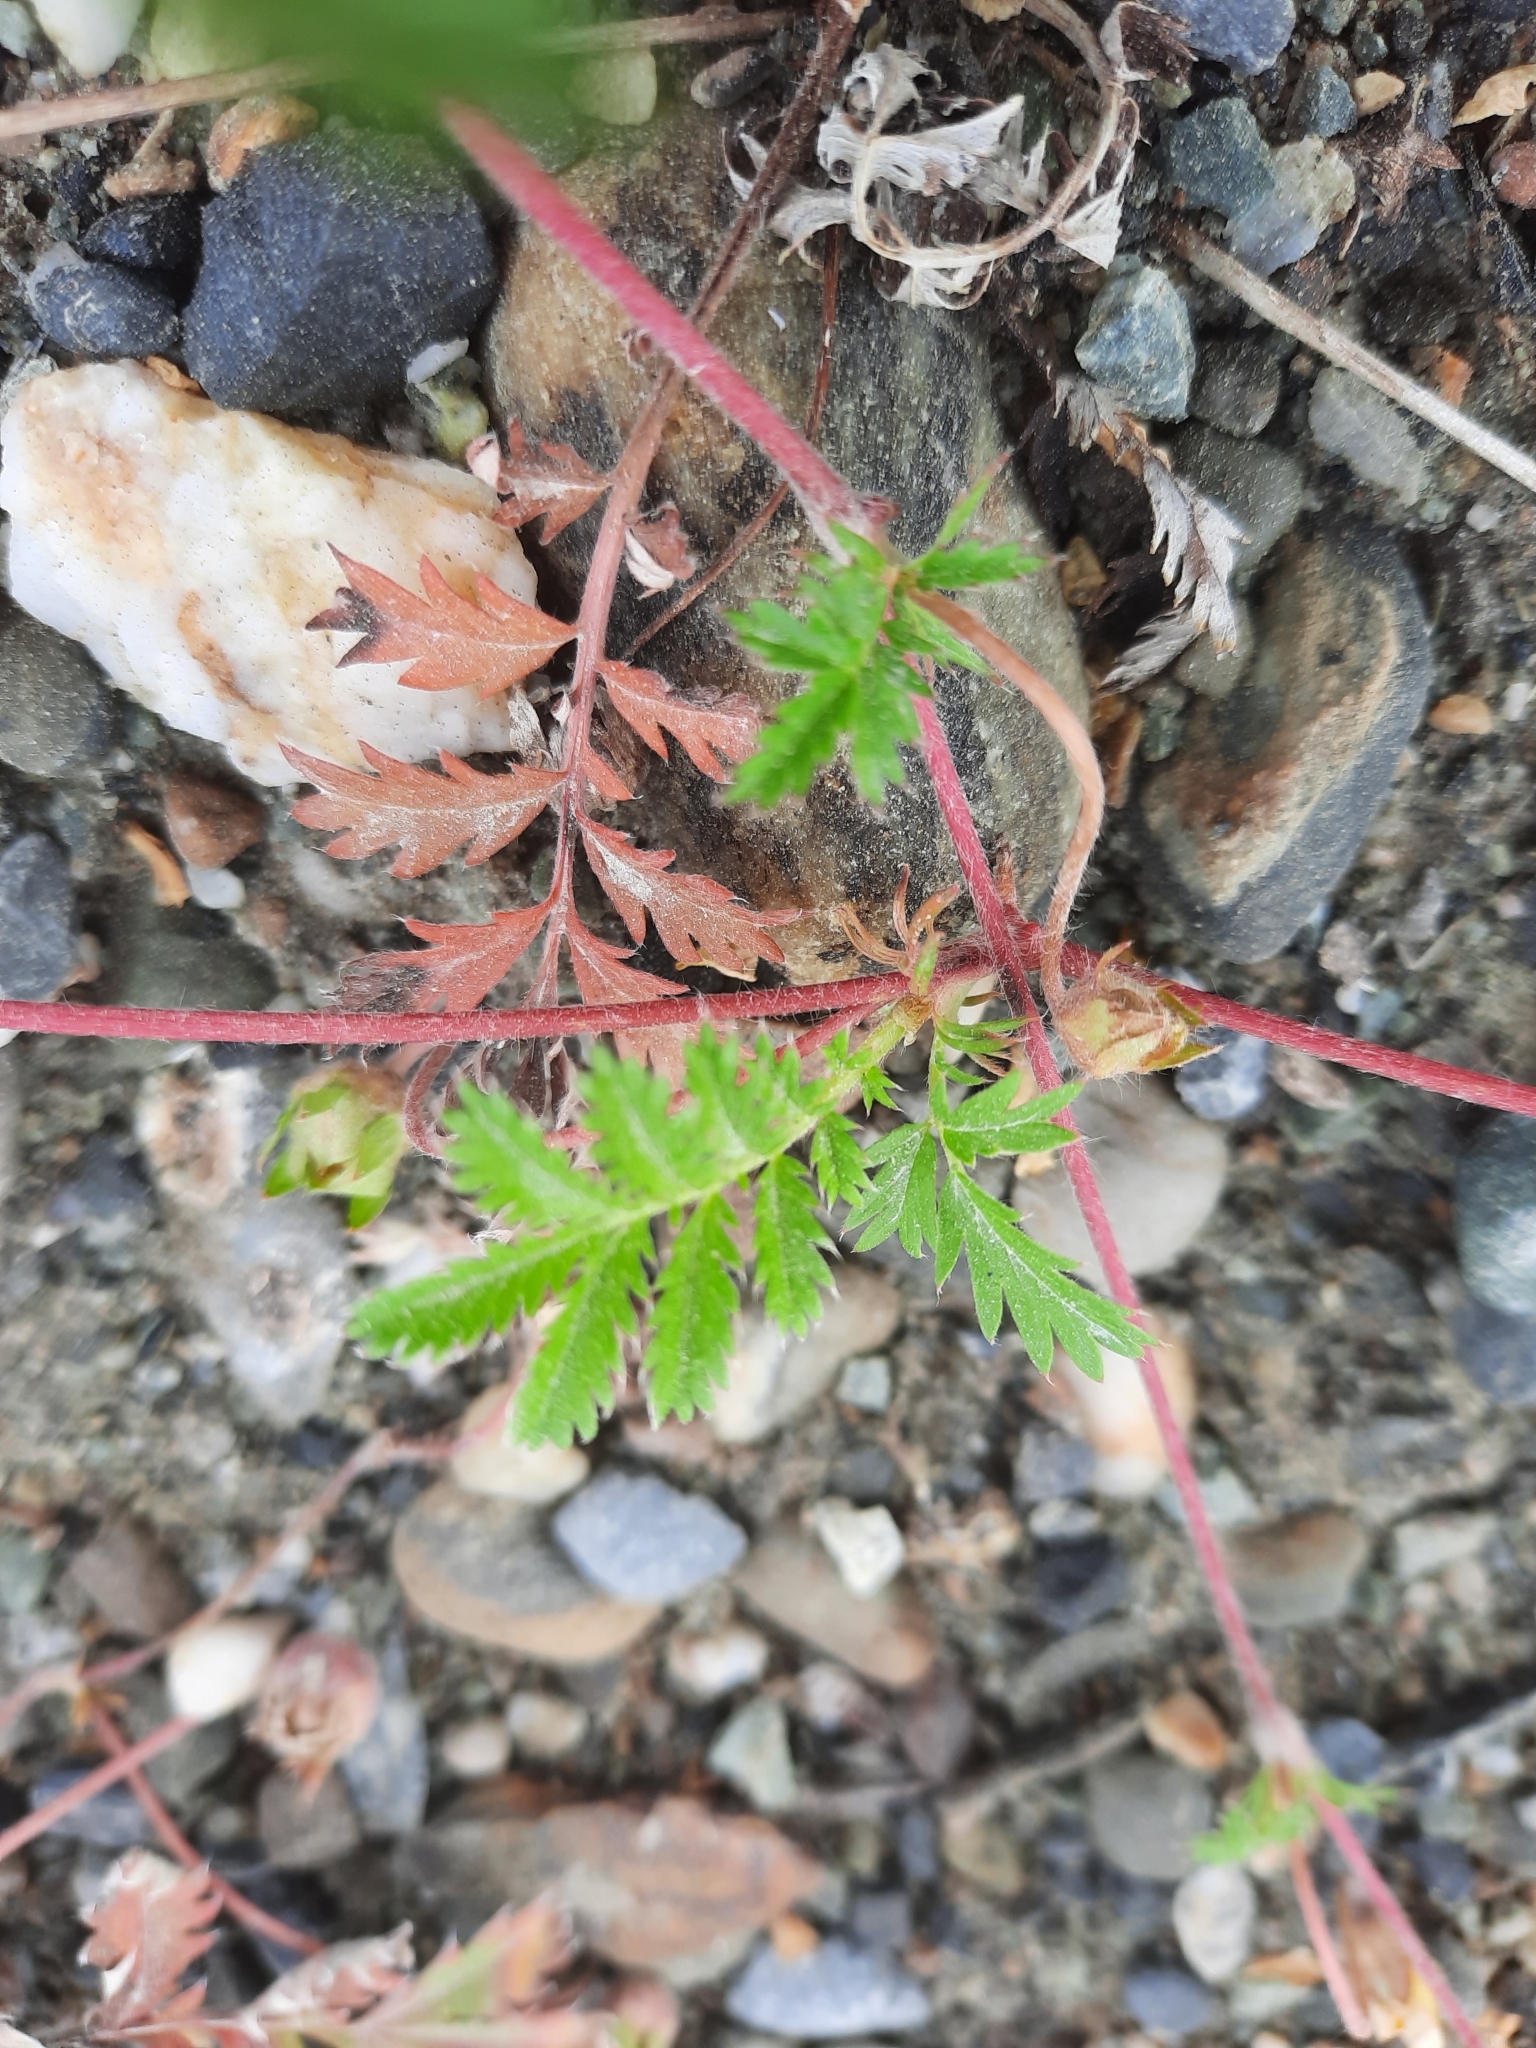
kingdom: Plantae
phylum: Tracheophyta
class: Magnoliopsida
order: Rosales
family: Rosaceae
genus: Argentina
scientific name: Argentina anserina
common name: Common silverweed
